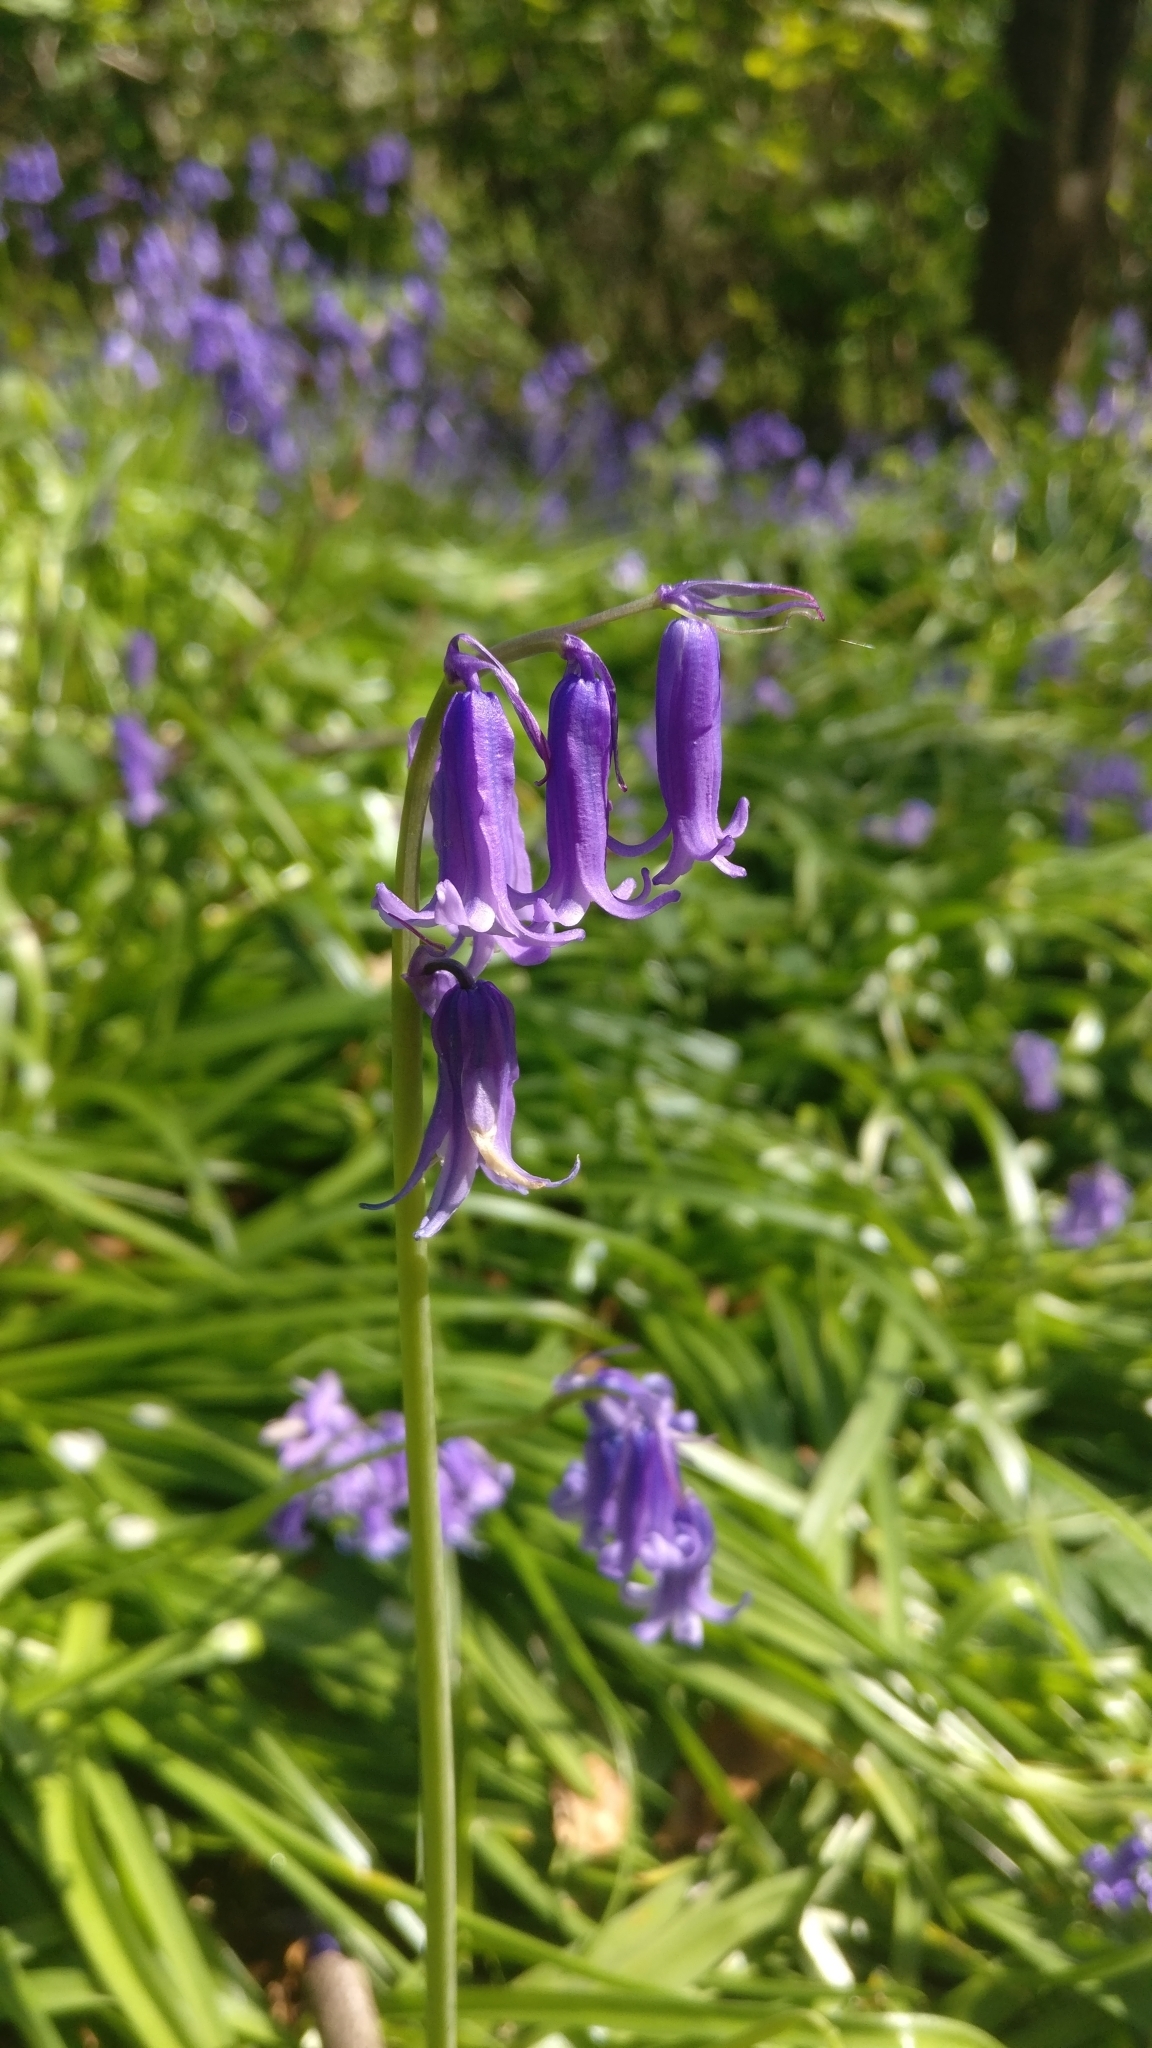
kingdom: Plantae
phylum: Tracheophyta
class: Liliopsida
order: Asparagales
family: Asparagaceae
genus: Hyacinthoides
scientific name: Hyacinthoides non-scripta
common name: Bluebell
